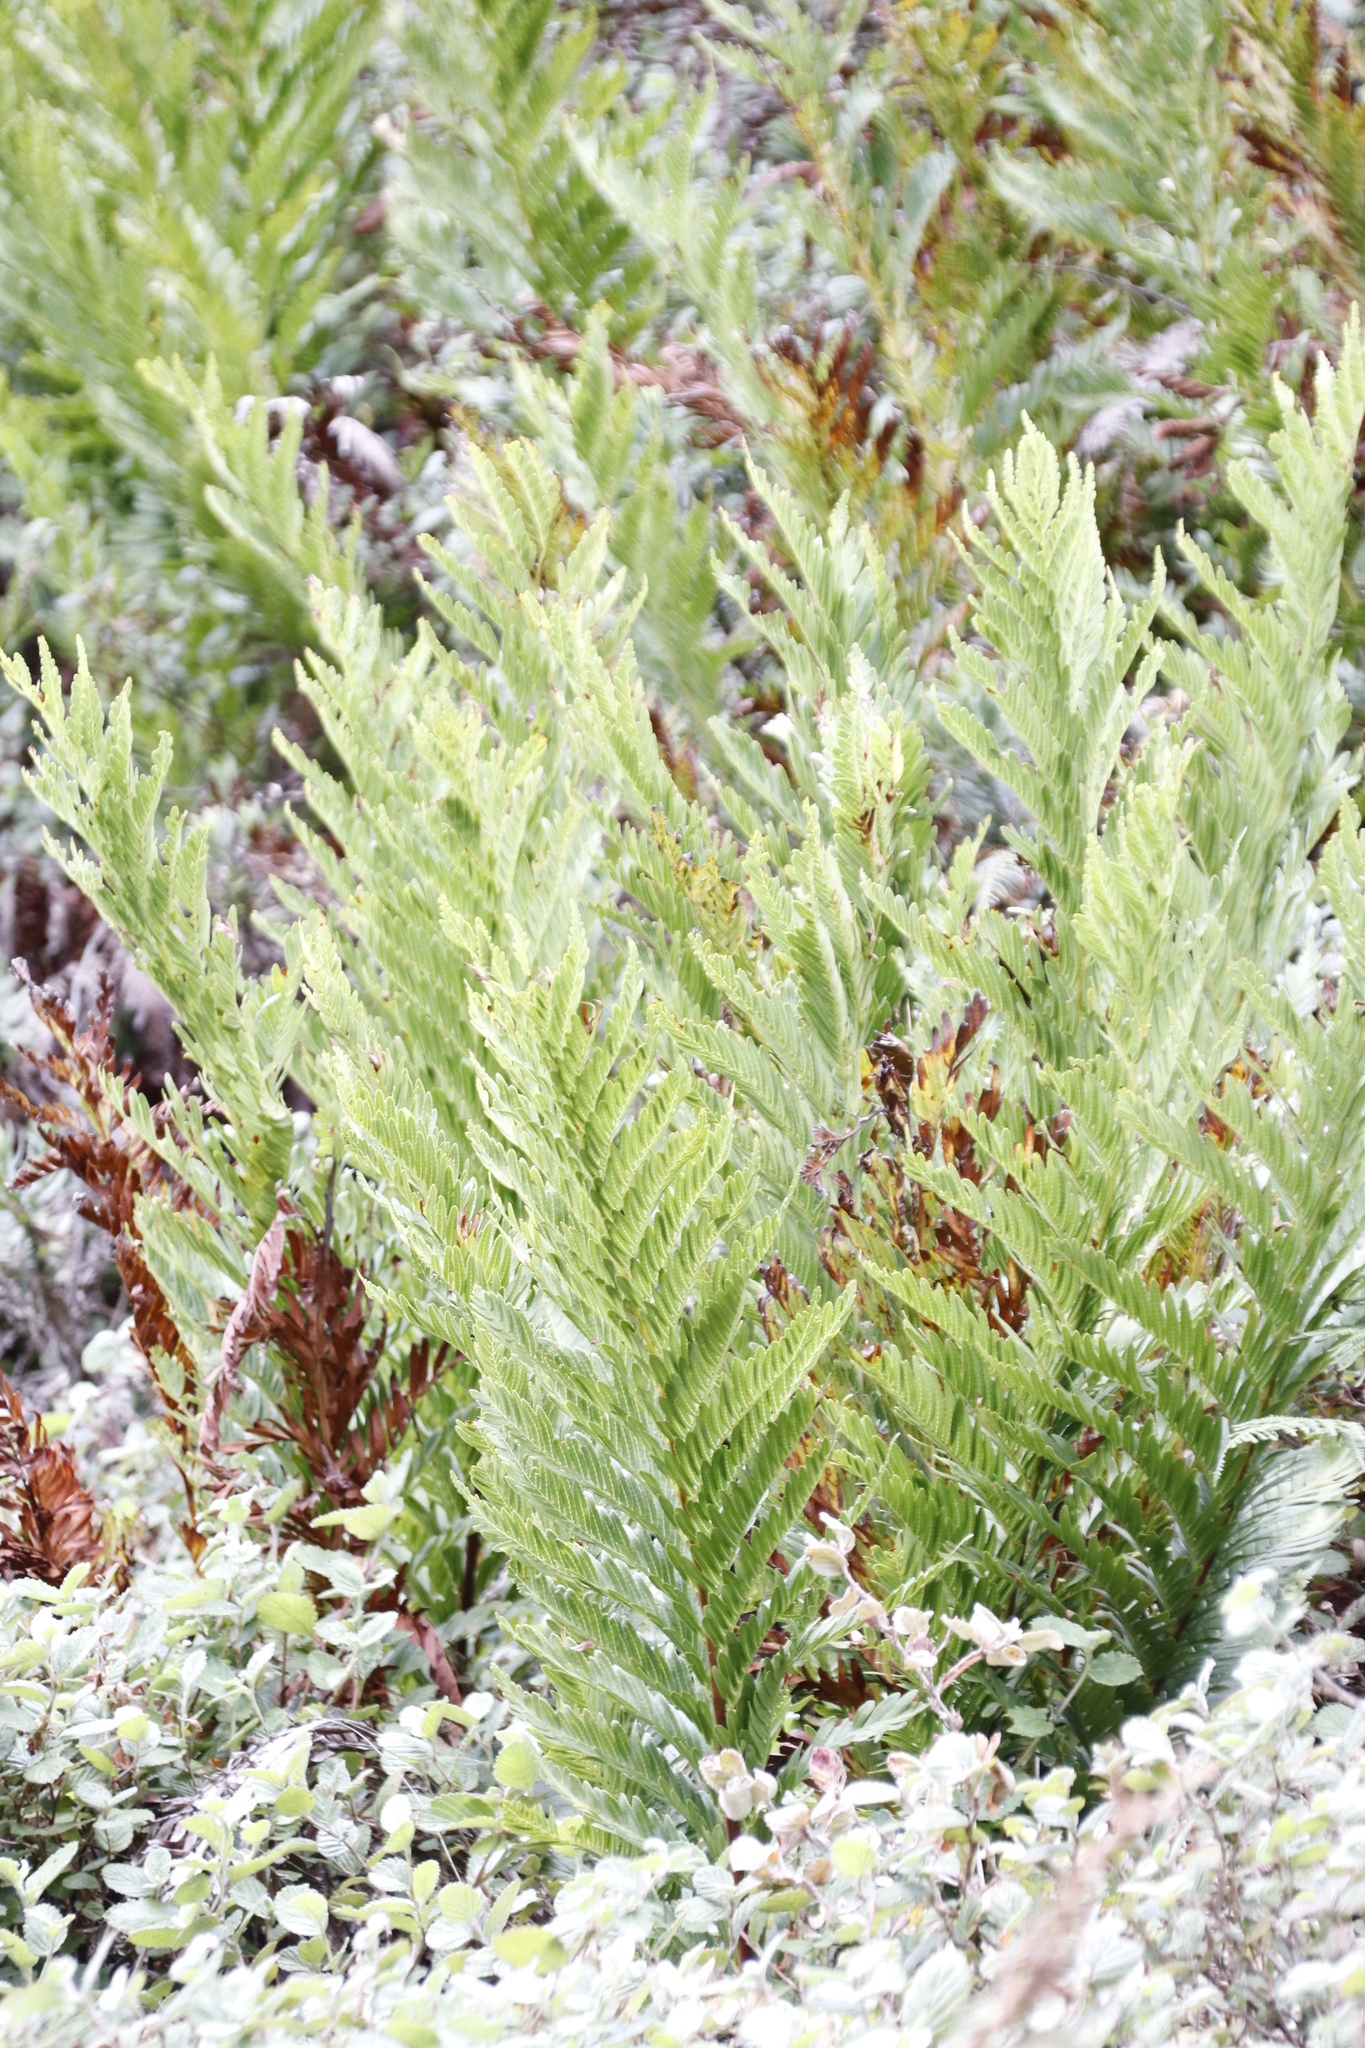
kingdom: Plantae
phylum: Tracheophyta
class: Polypodiopsida
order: Osmundales
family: Osmundaceae
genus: Todea
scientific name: Todea barbara
